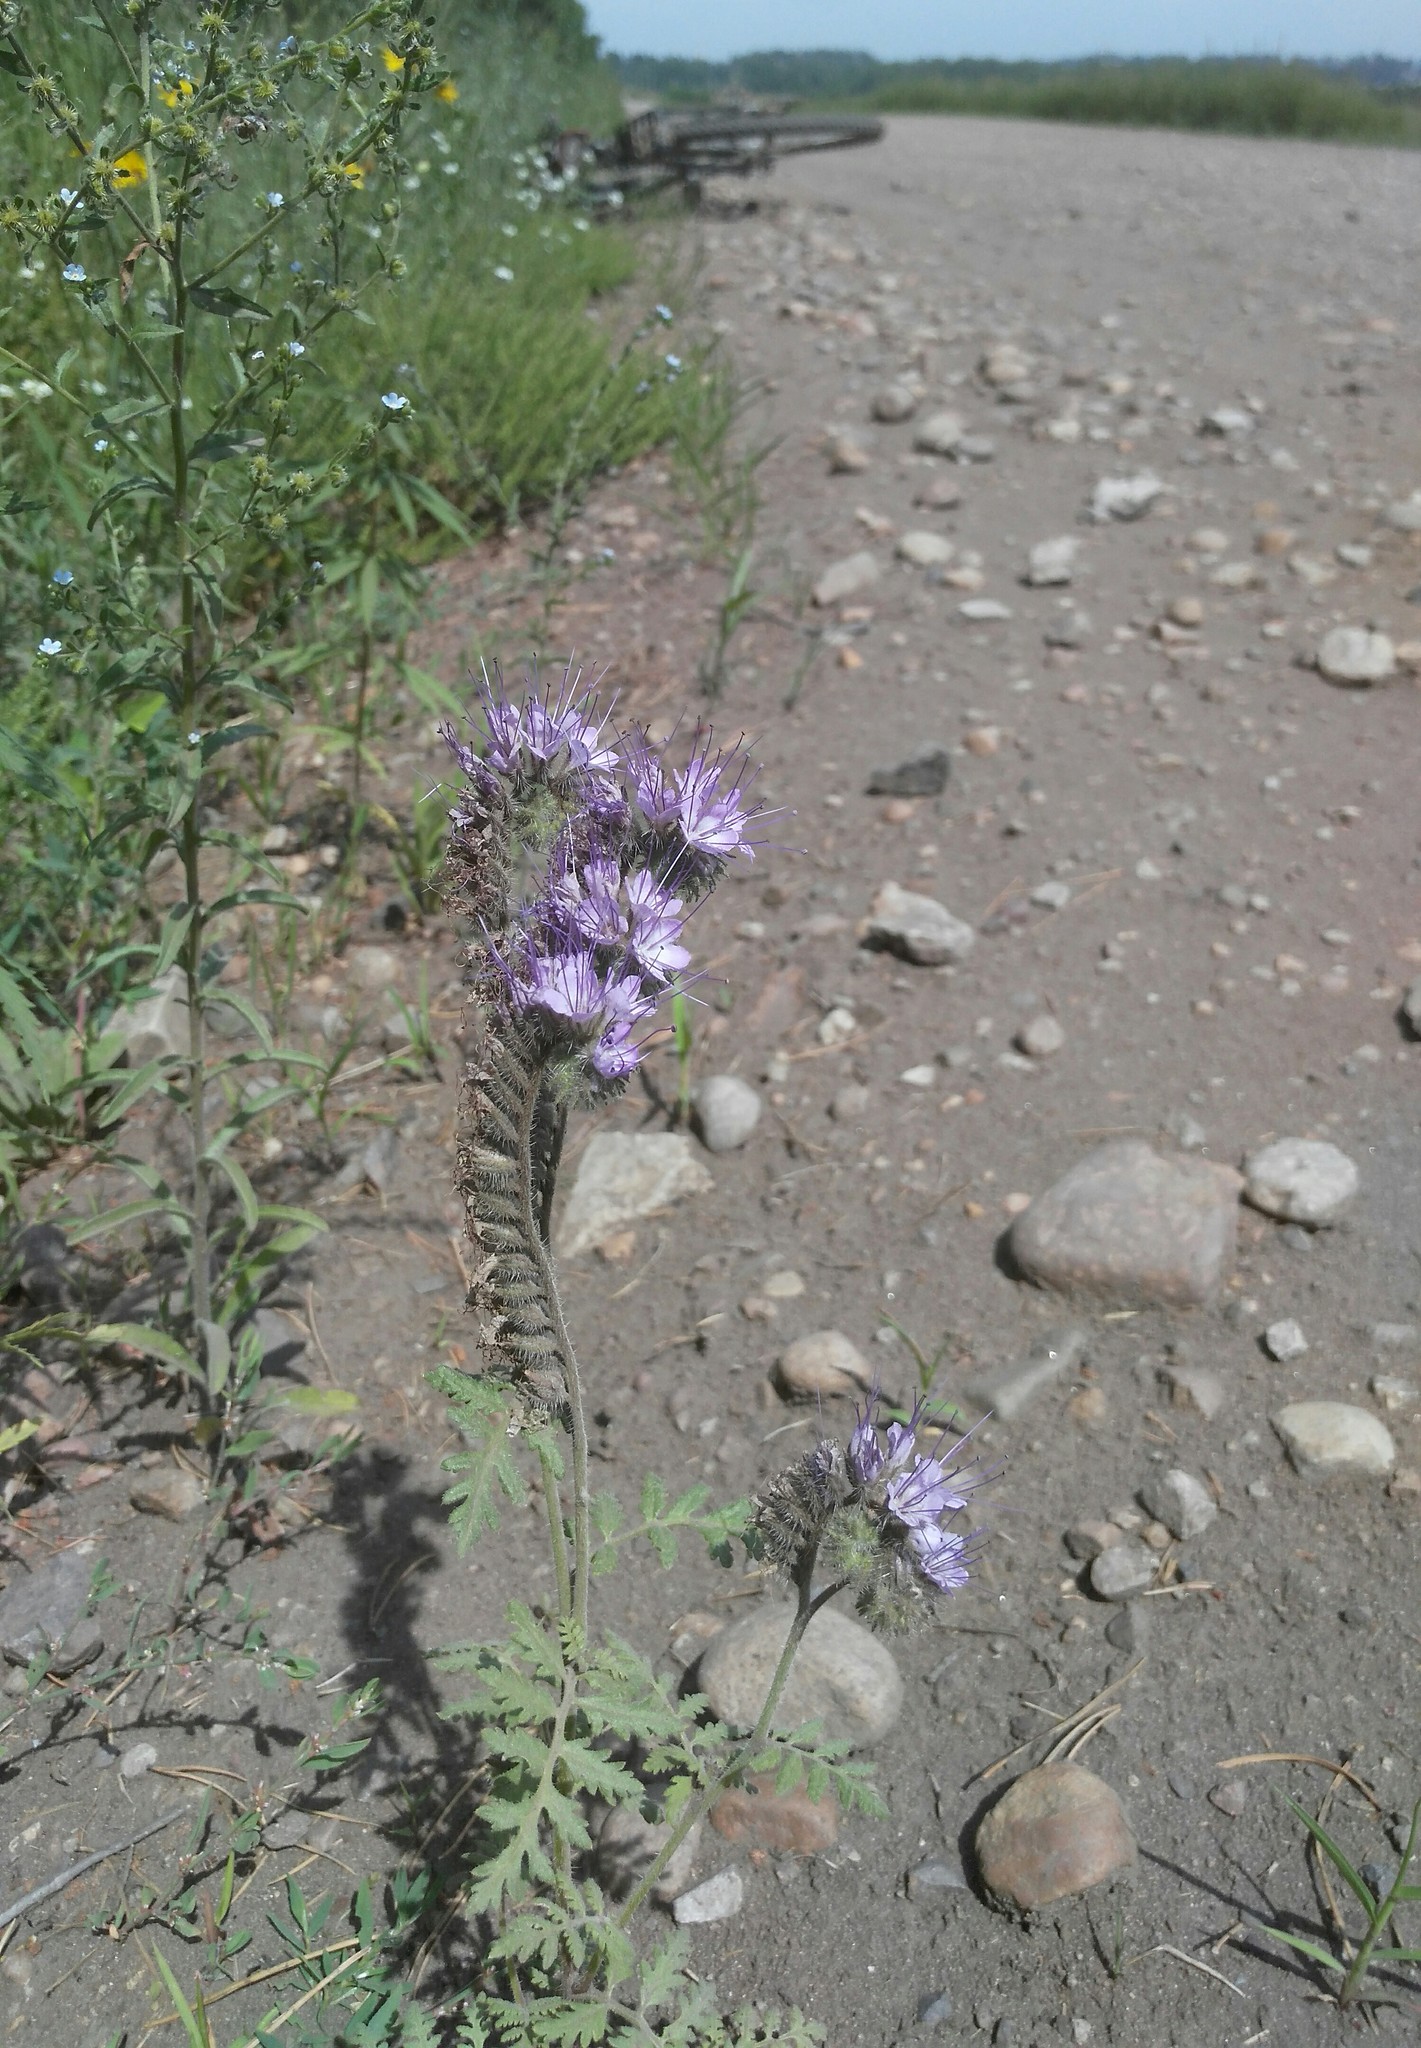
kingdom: Plantae
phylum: Tracheophyta
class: Magnoliopsida
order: Boraginales
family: Hydrophyllaceae
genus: Phacelia
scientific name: Phacelia tanacetifolia
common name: Phacelia
